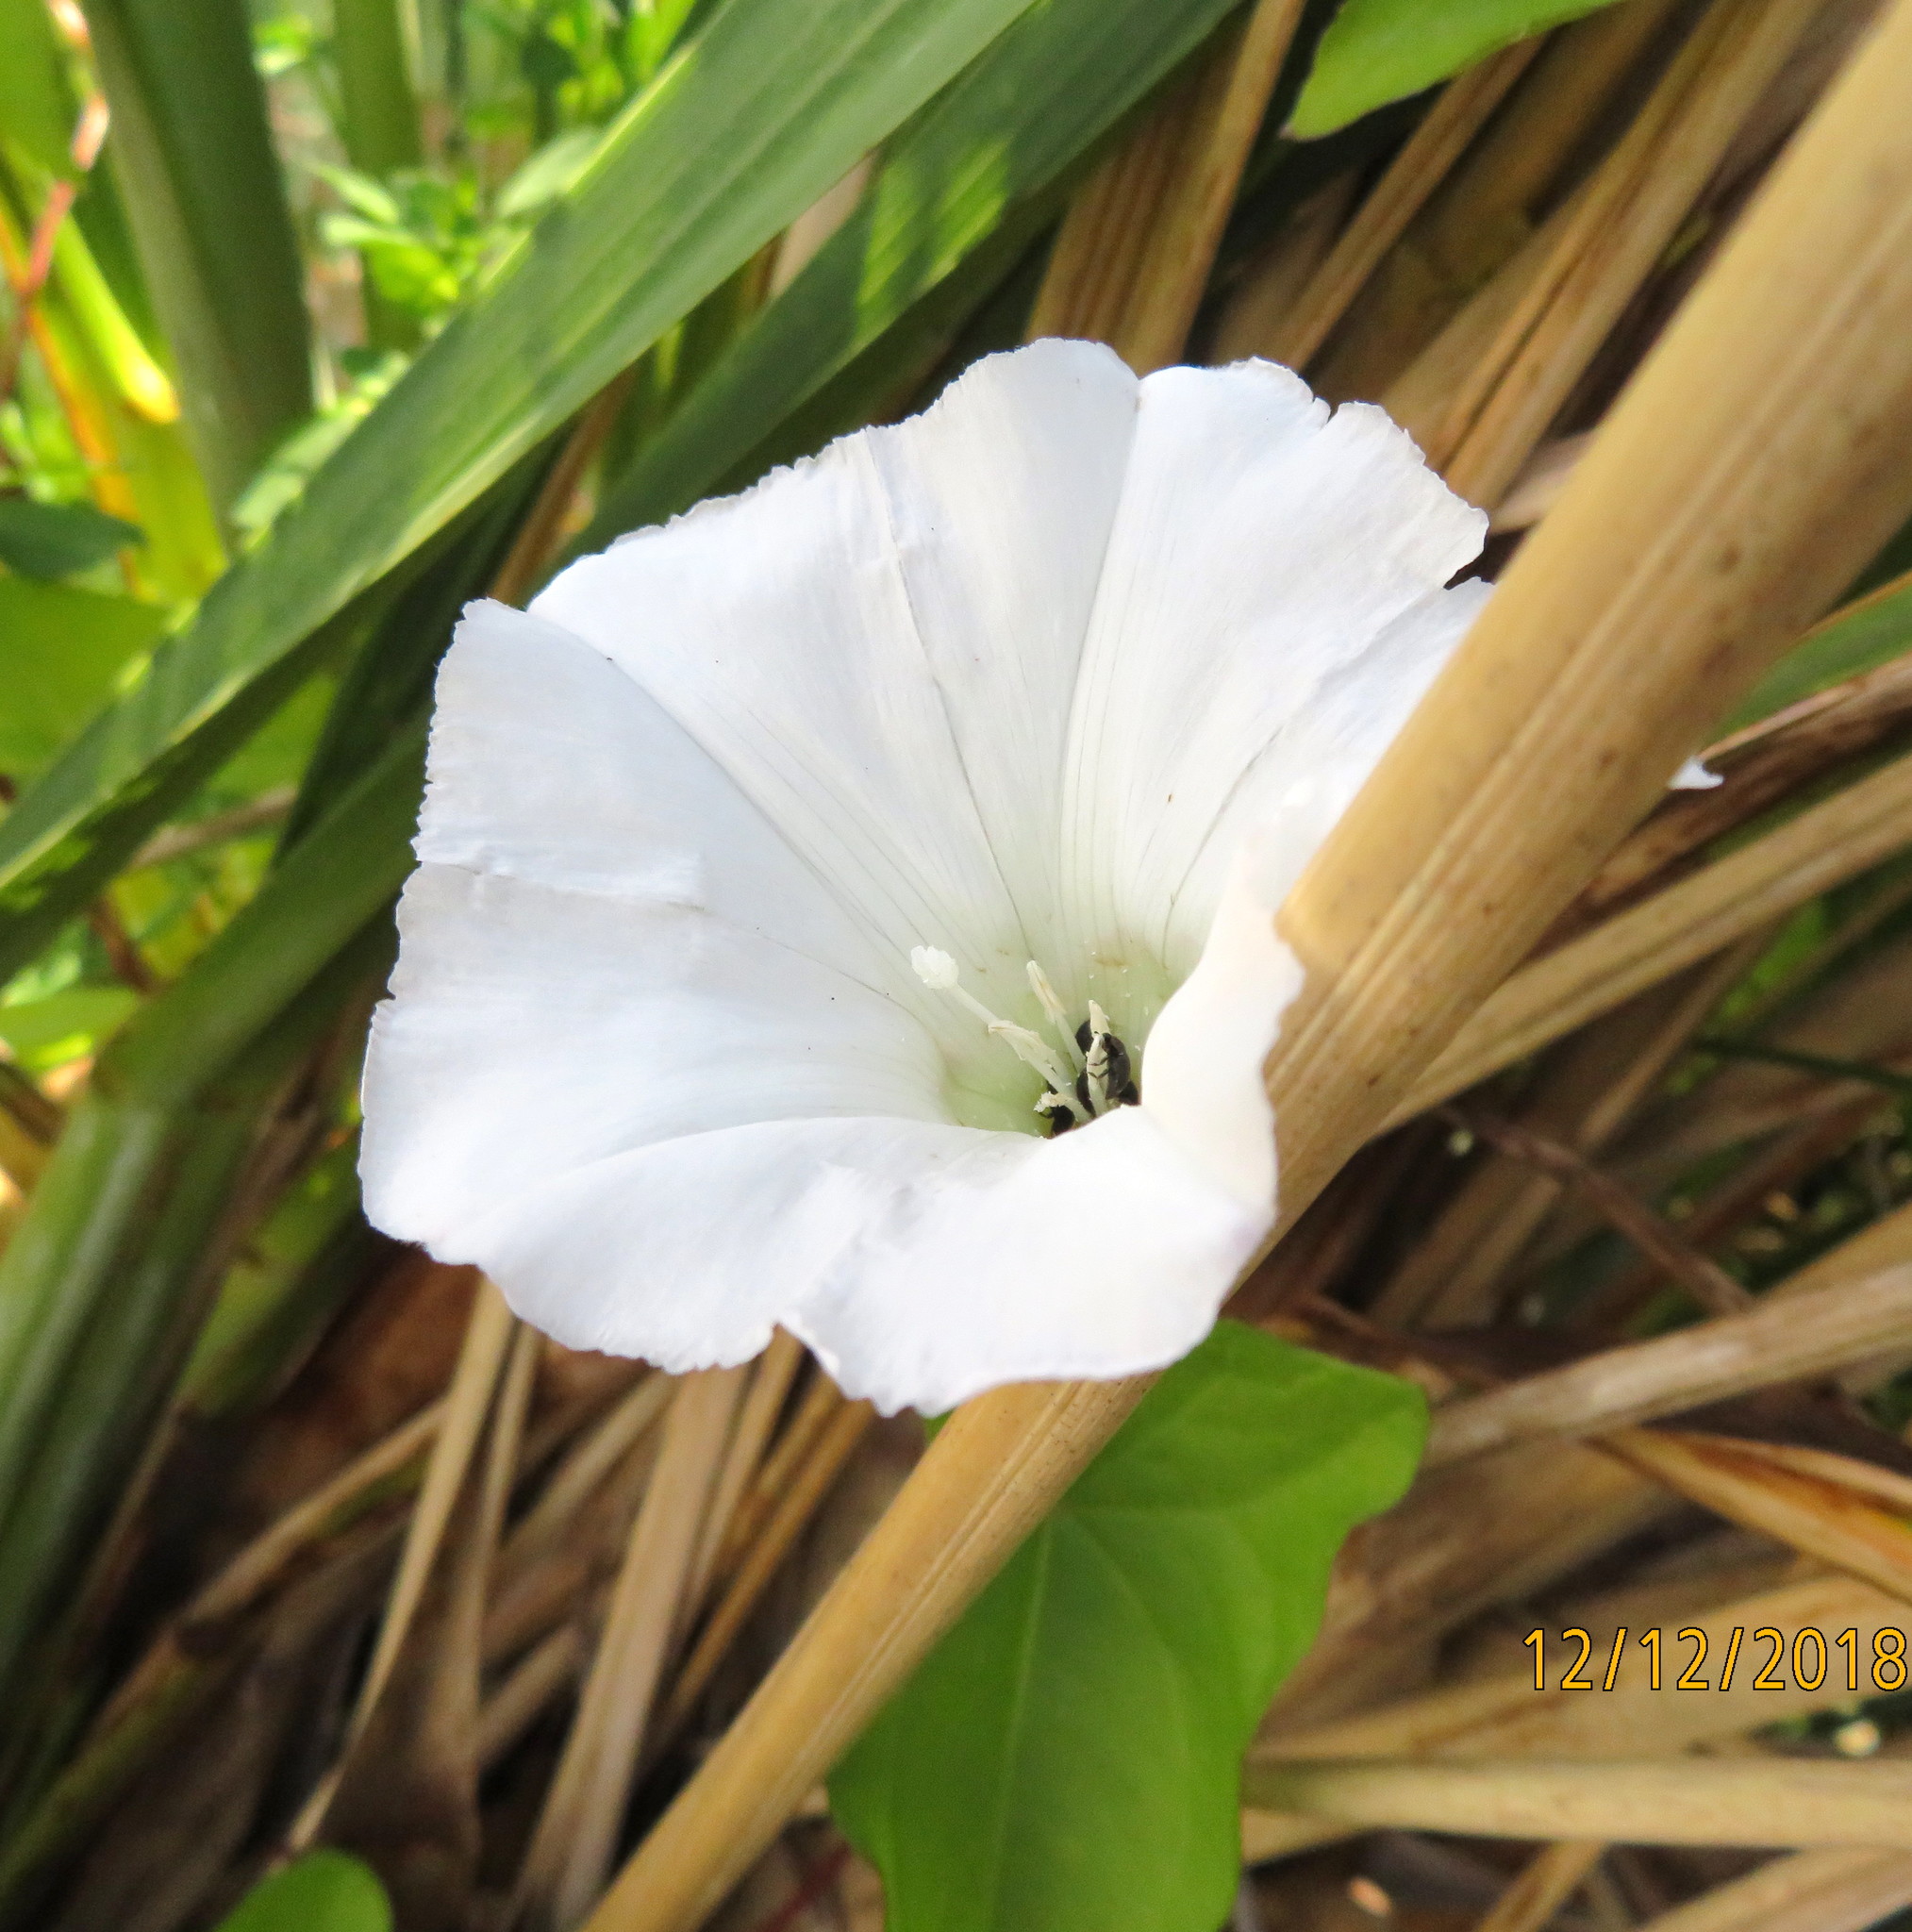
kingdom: Plantae
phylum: Tracheophyta
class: Magnoliopsida
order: Solanales
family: Convolvulaceae
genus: Calystegia
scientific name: Calystegia silvatica
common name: Large bindweed
